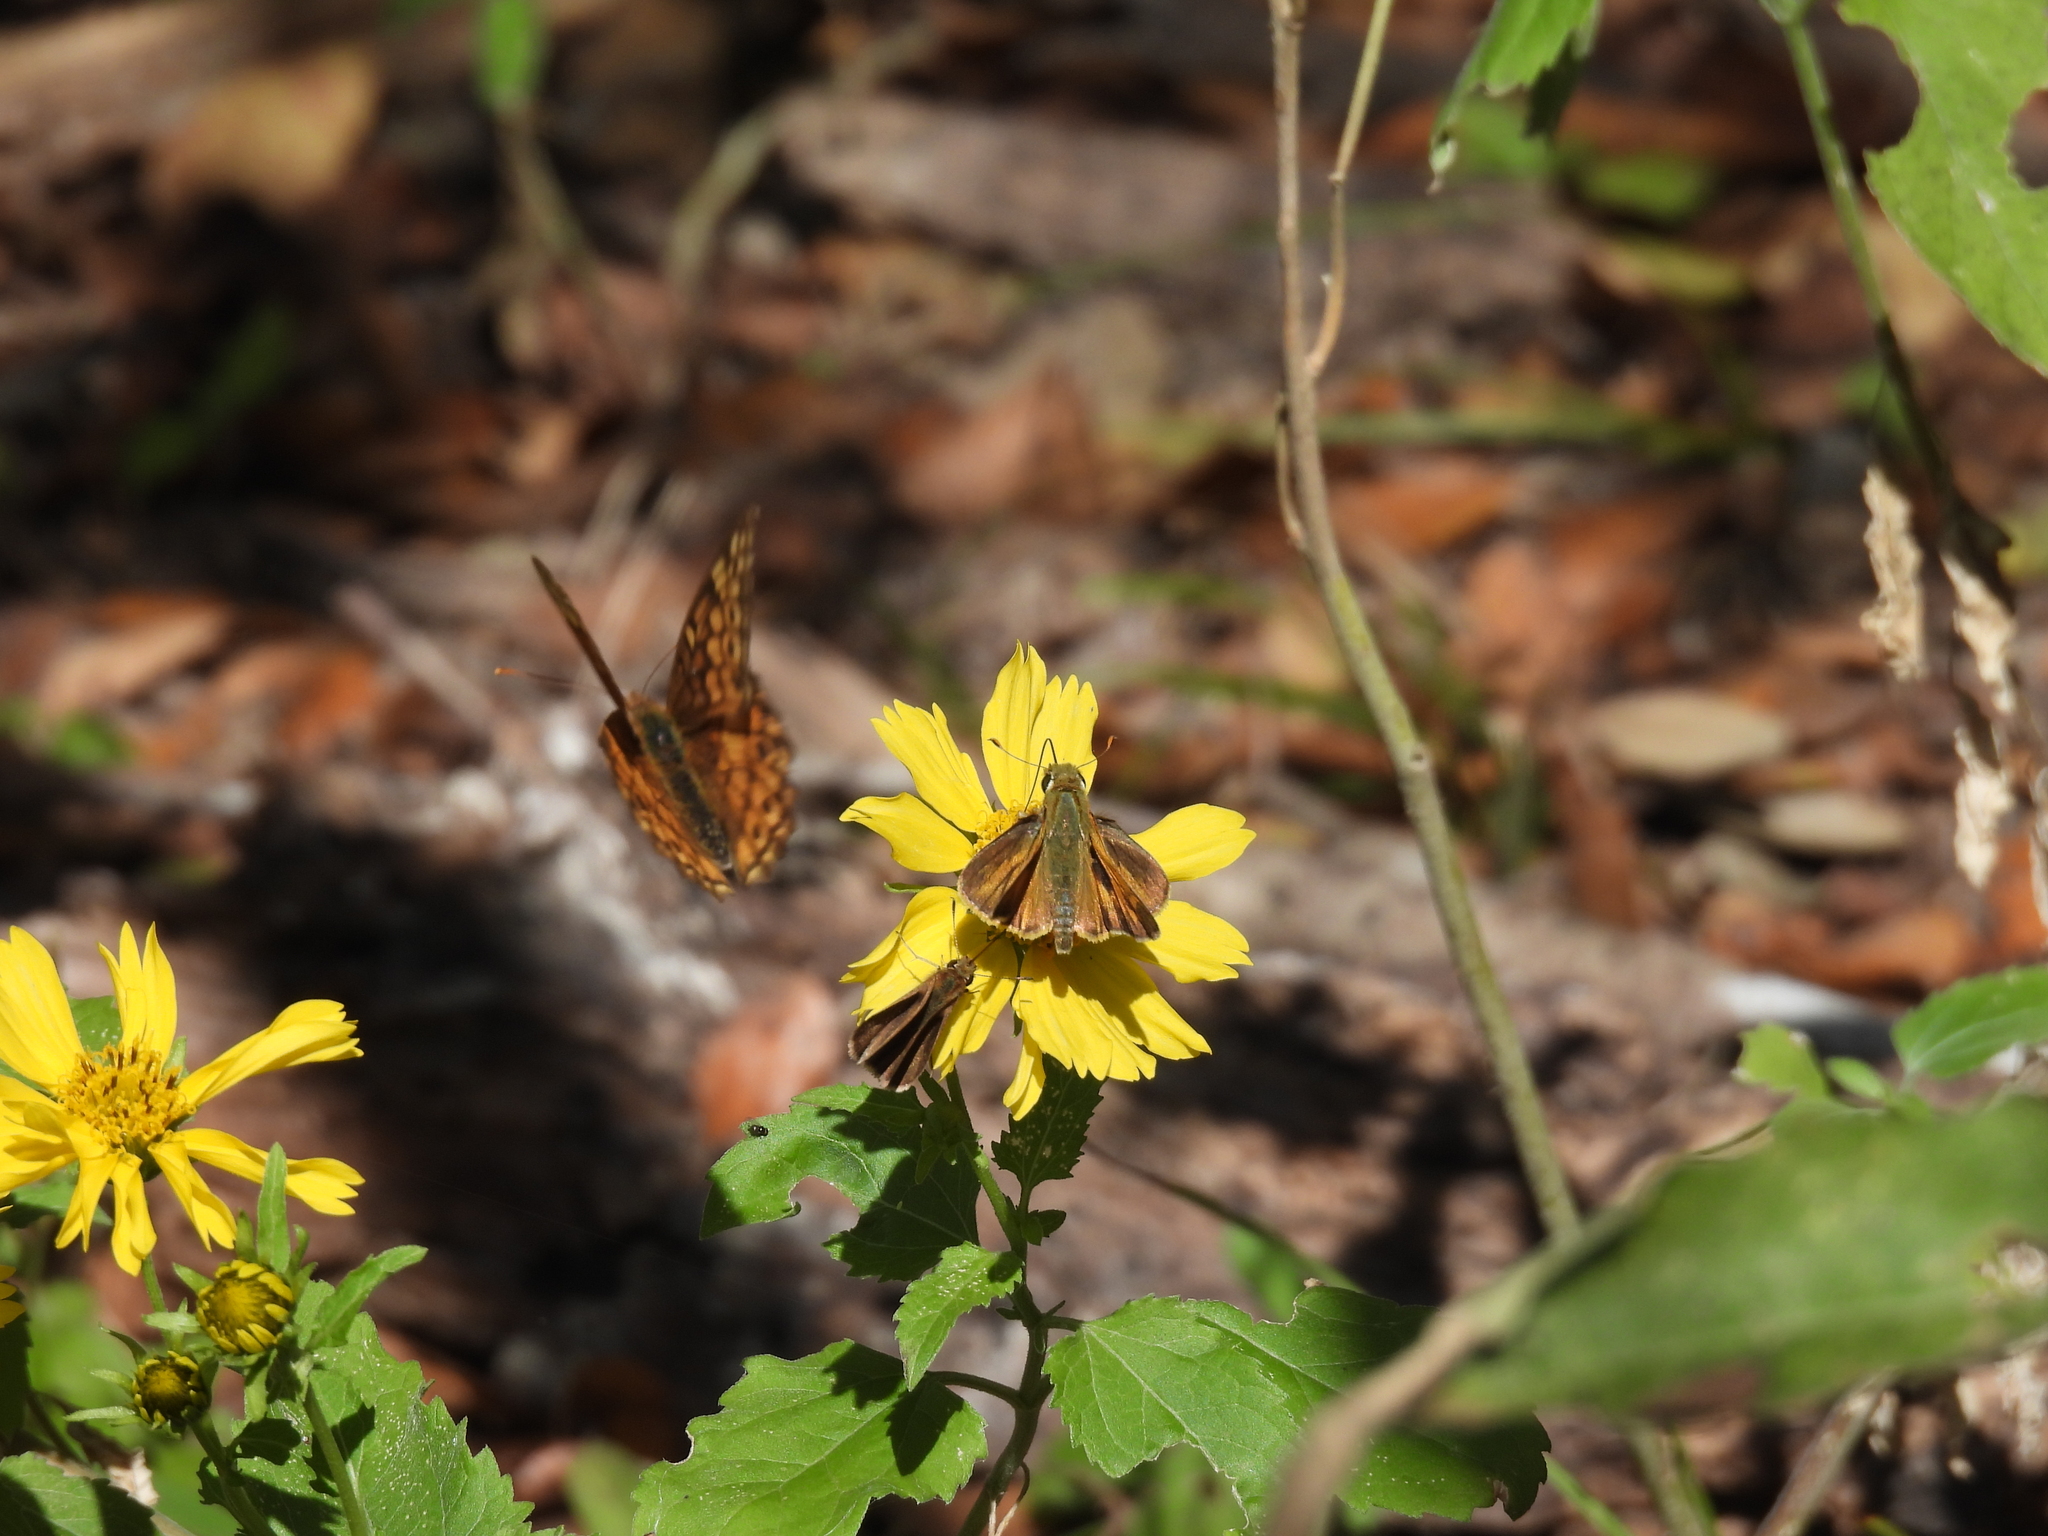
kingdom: Animalia
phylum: Arthropoda
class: Insecta
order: Lepidoptera
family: Hesperiidae
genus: Hylephila
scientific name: Hylephila phyleus
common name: Fiery skipper
